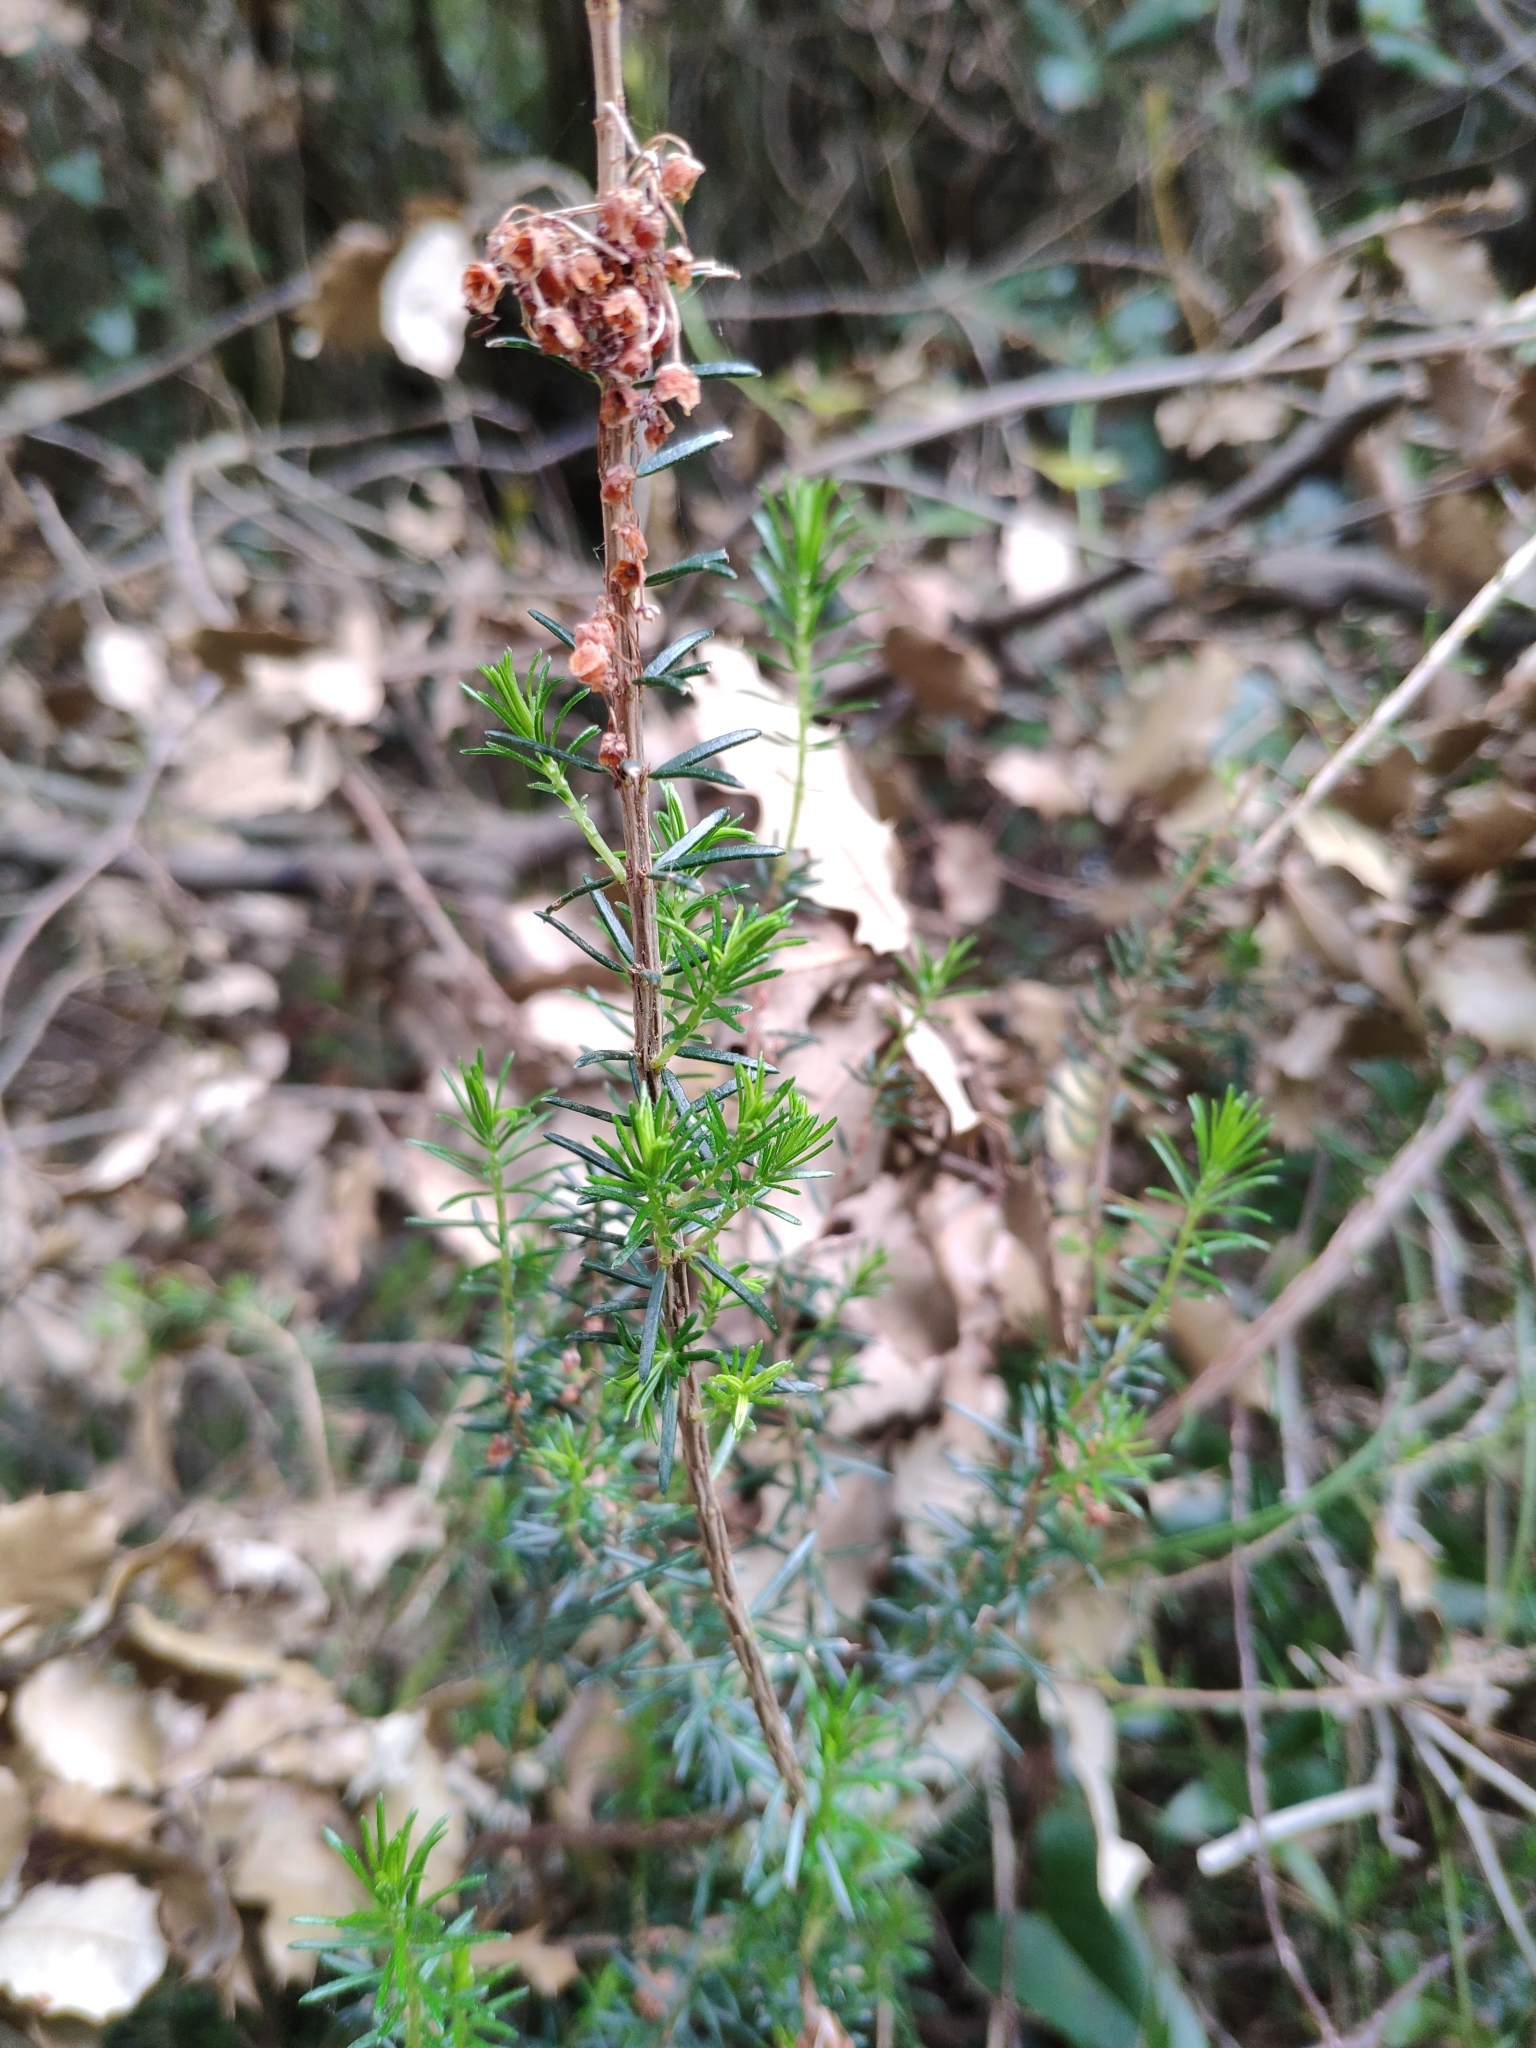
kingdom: Plantae
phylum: Tracheophyta
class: Magnoliopsida
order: Ericales
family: Ericaceae
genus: Erica
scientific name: Erica vagans
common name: Cornish heath
